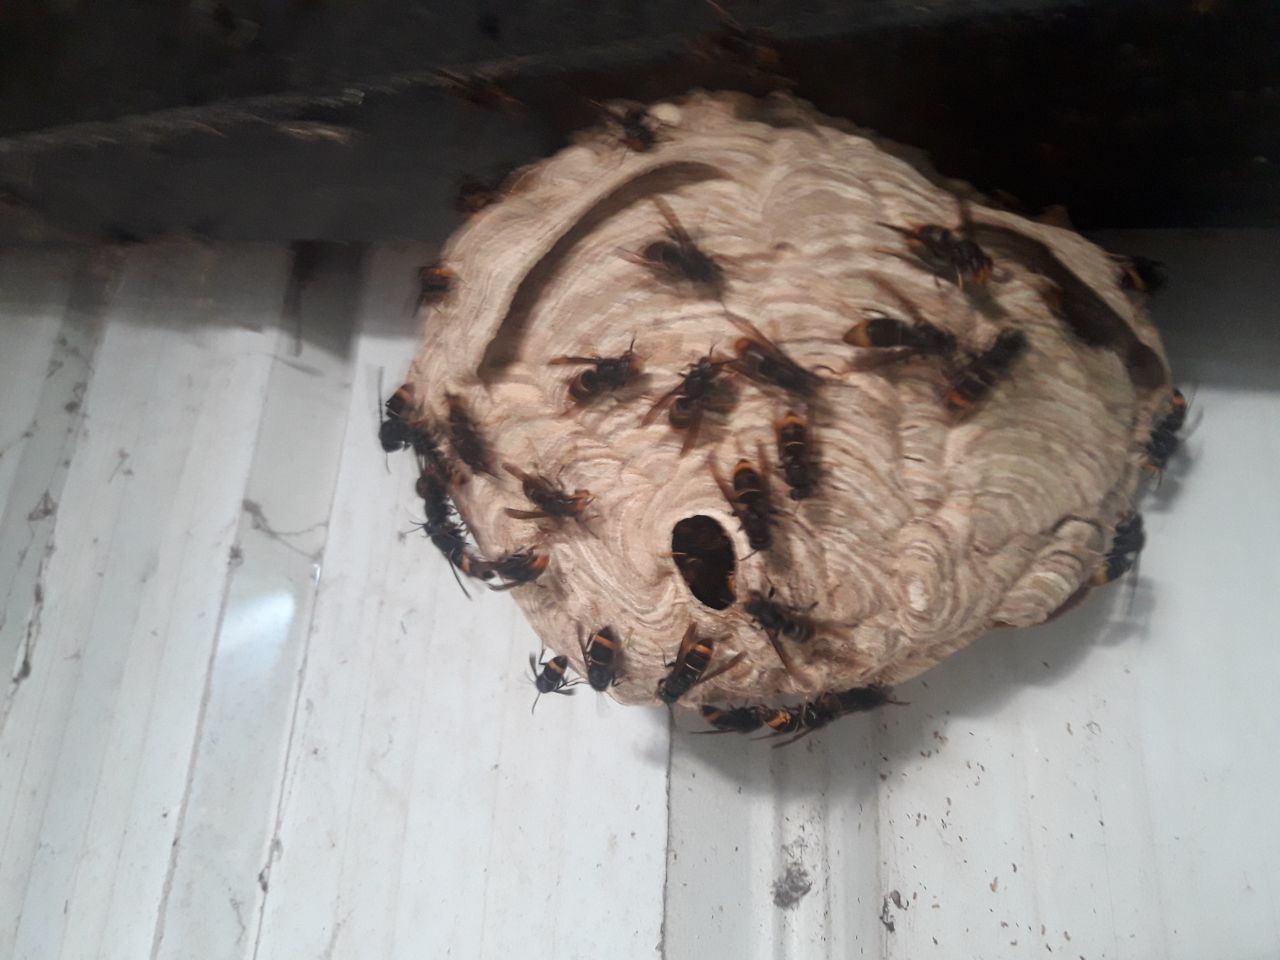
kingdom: Animalia
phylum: Arthropoda
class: Insecta
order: Hymenoptera
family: Vespidae
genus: Vespa
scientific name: Vespa velutina
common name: Asian hornet
